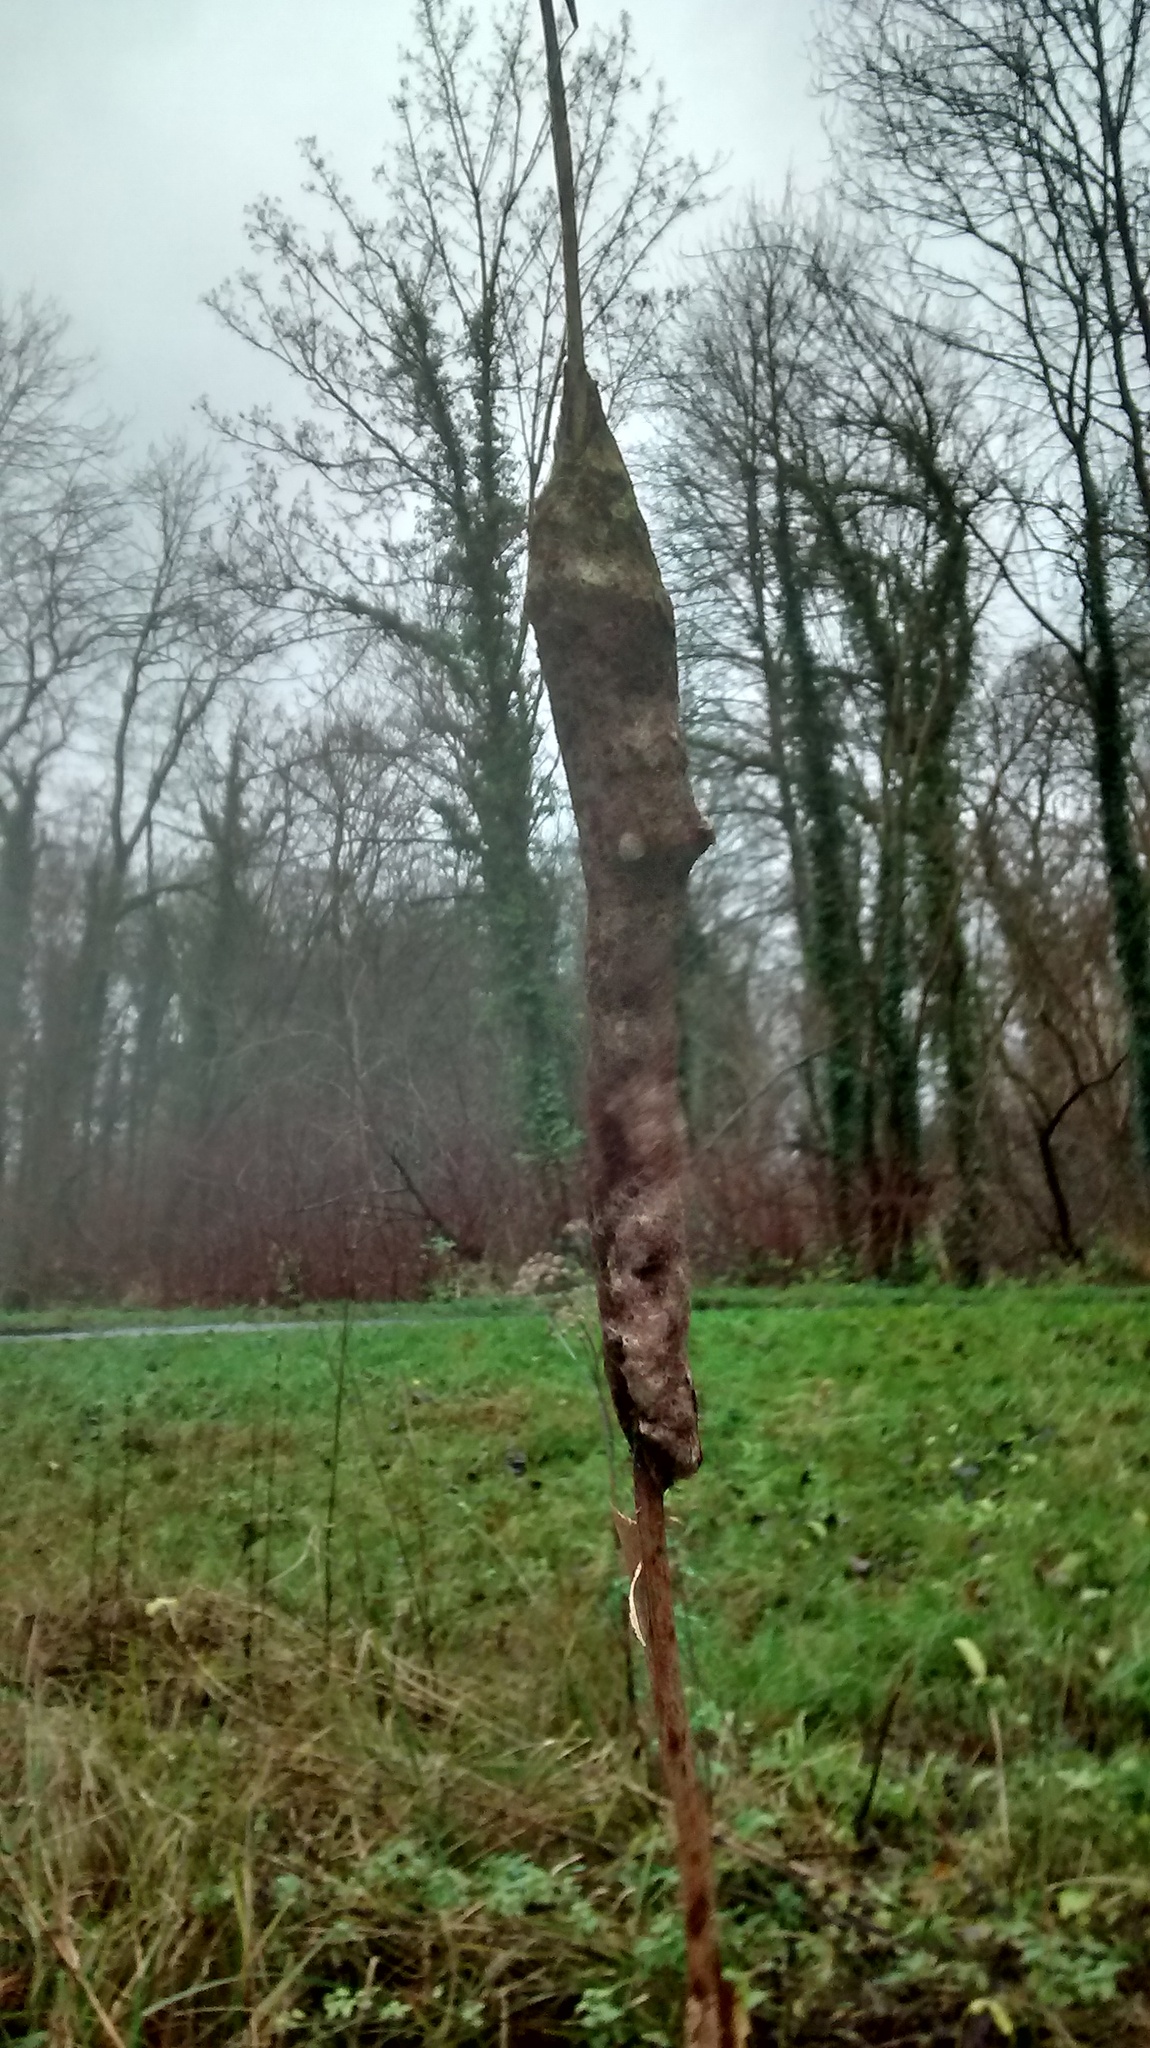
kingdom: Plantae
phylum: Tracheophyta
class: Liliopsida
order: Poales
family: Typhaceae
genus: Typha
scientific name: Typha latifolia
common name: Broadleaf cattail
